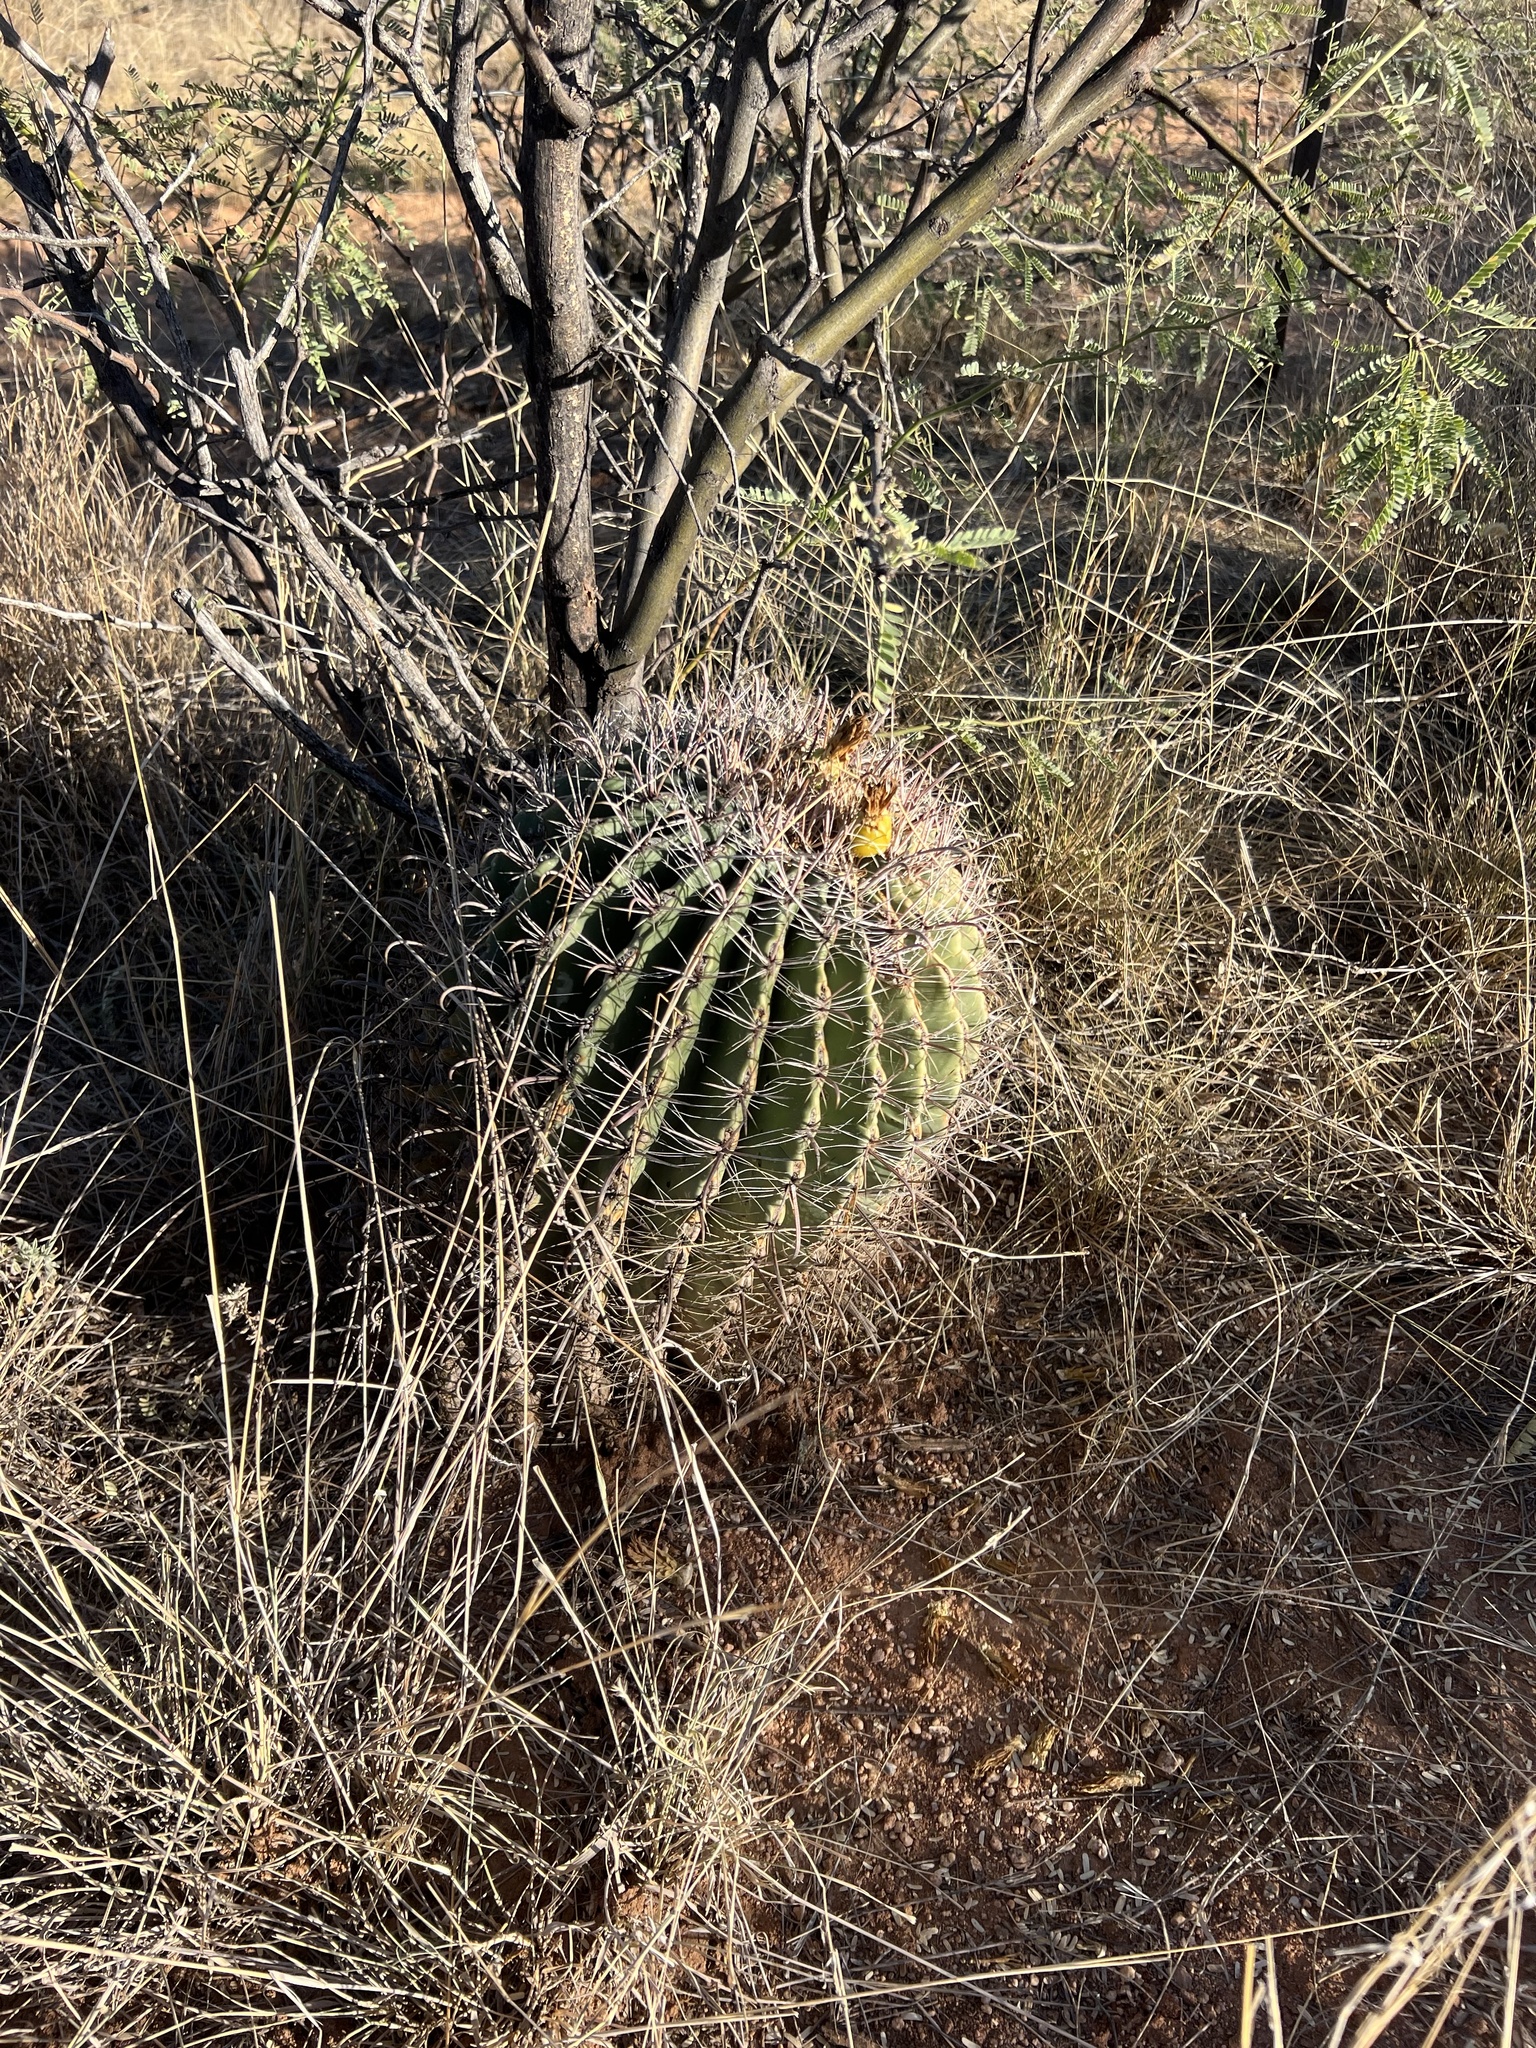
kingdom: Plantae
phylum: Tracheophyta
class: Magnoliopsida
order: Caryophyllales
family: Cactaceae
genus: Ferocactus
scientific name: Ferocactus wislizeni
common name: Candy barrel cactus
